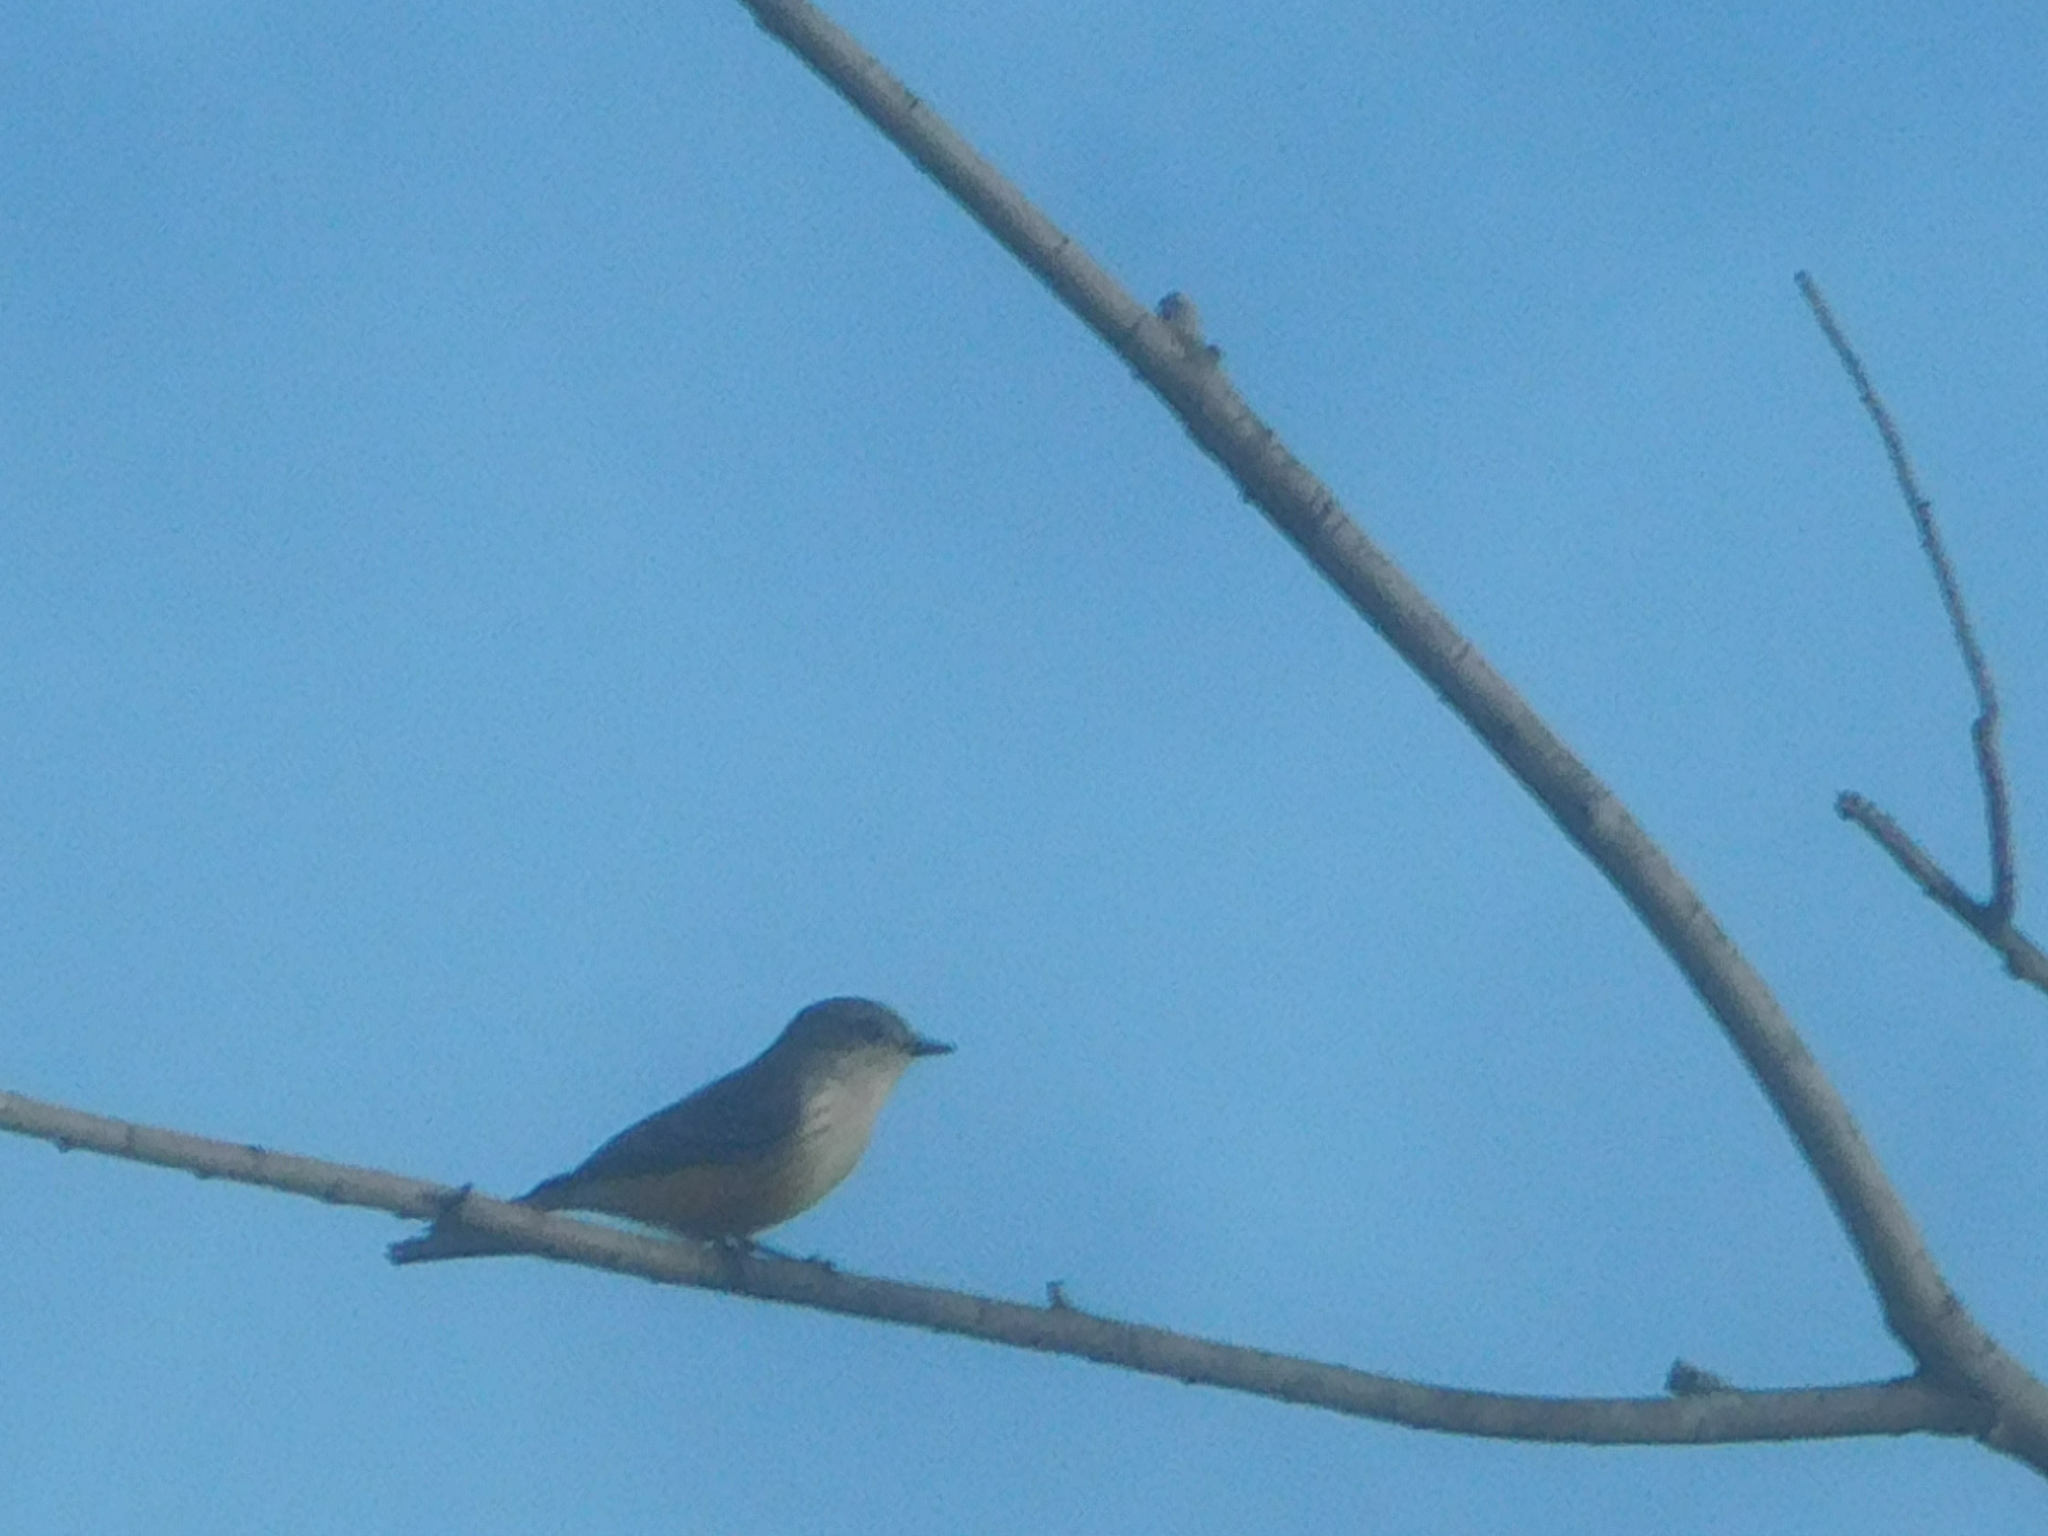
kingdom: Animalia
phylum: Chordata
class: Aves
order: Passeriformes
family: Tyrannidae
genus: Pyrocephalus
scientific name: Pyrocephalus rubinus
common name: Vermilion flycatcher
